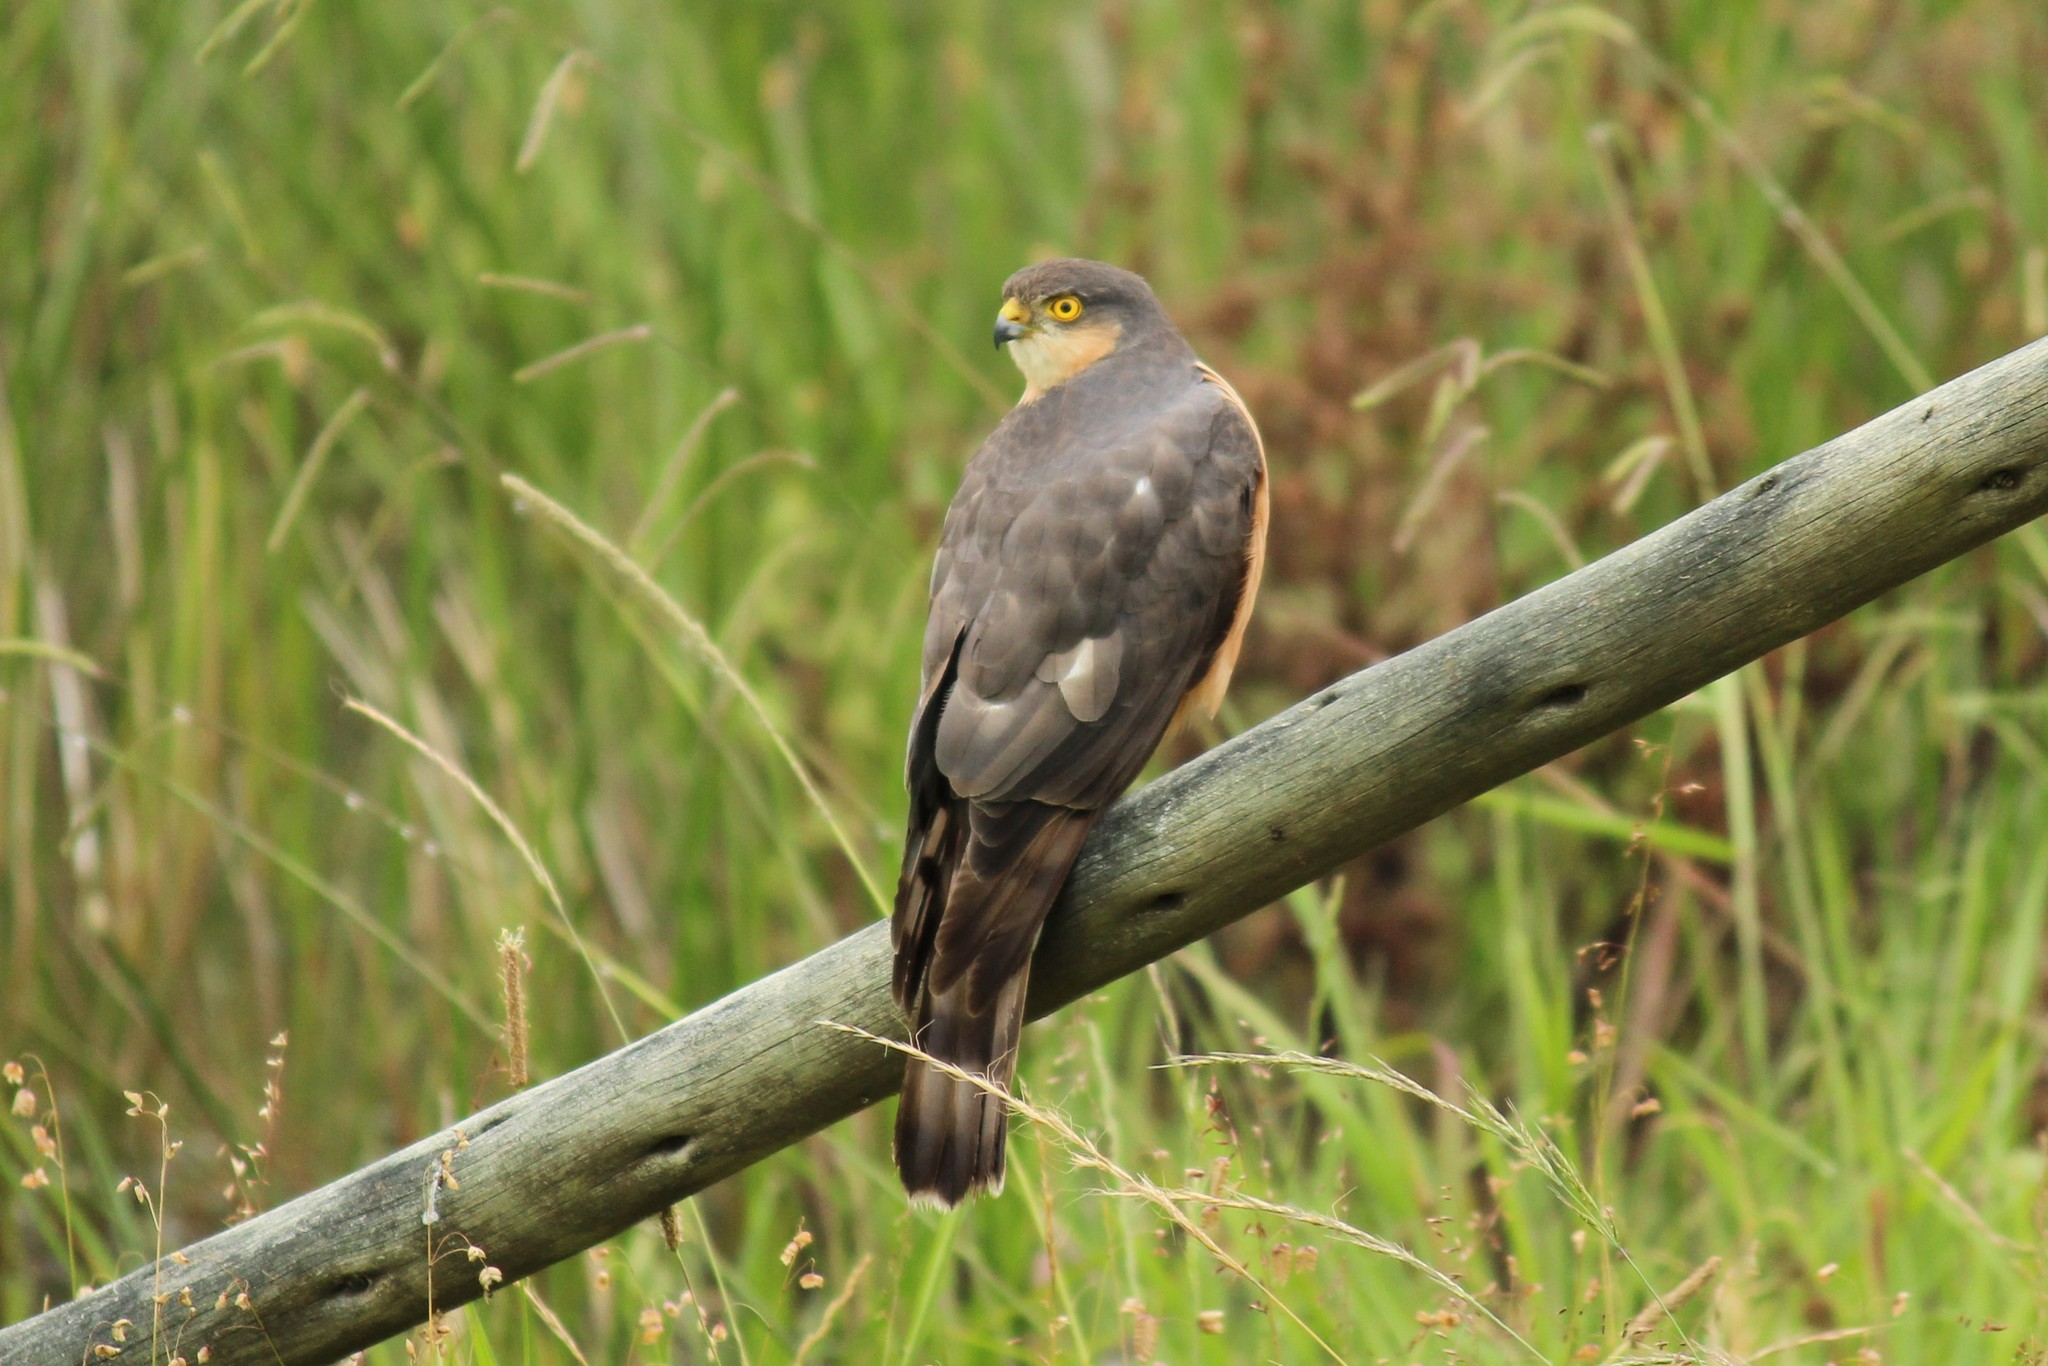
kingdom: Animalia
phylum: Chordata
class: Aves
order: Accipitriformes
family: Accipitridae
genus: Accipiter
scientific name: Accipiter rufiventris
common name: Rufous-breasted sparrowhawk
